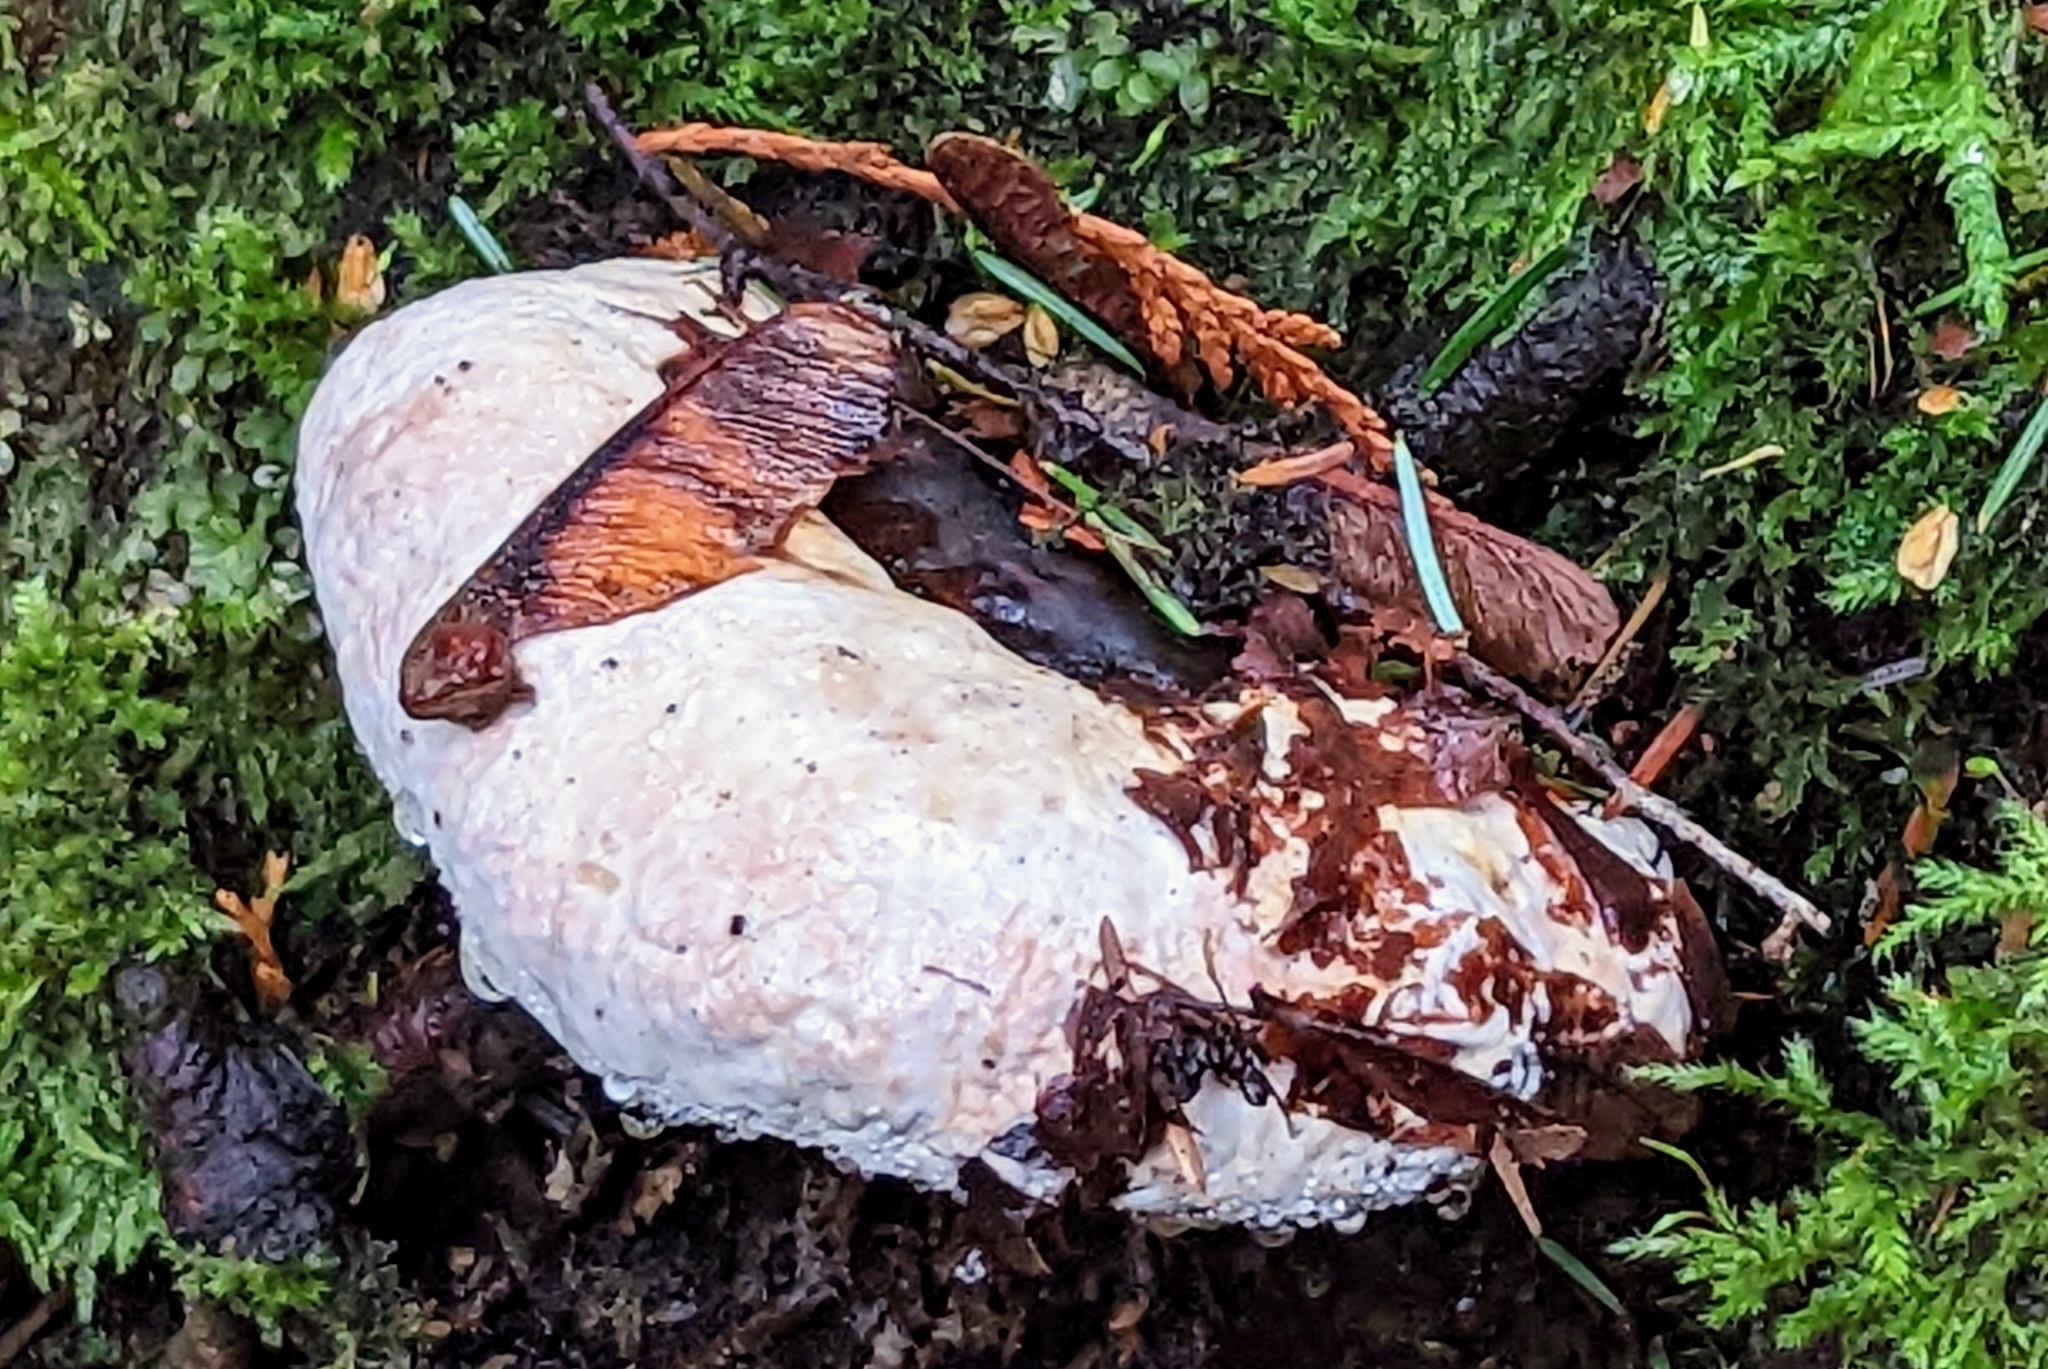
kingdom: Fungi
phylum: Basidiomycota
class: Agaricomycetes
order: Polyporales
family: Fomitopsidaceae
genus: Fomitopsis
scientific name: Fomitopsis mounceae
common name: Northern red belt
